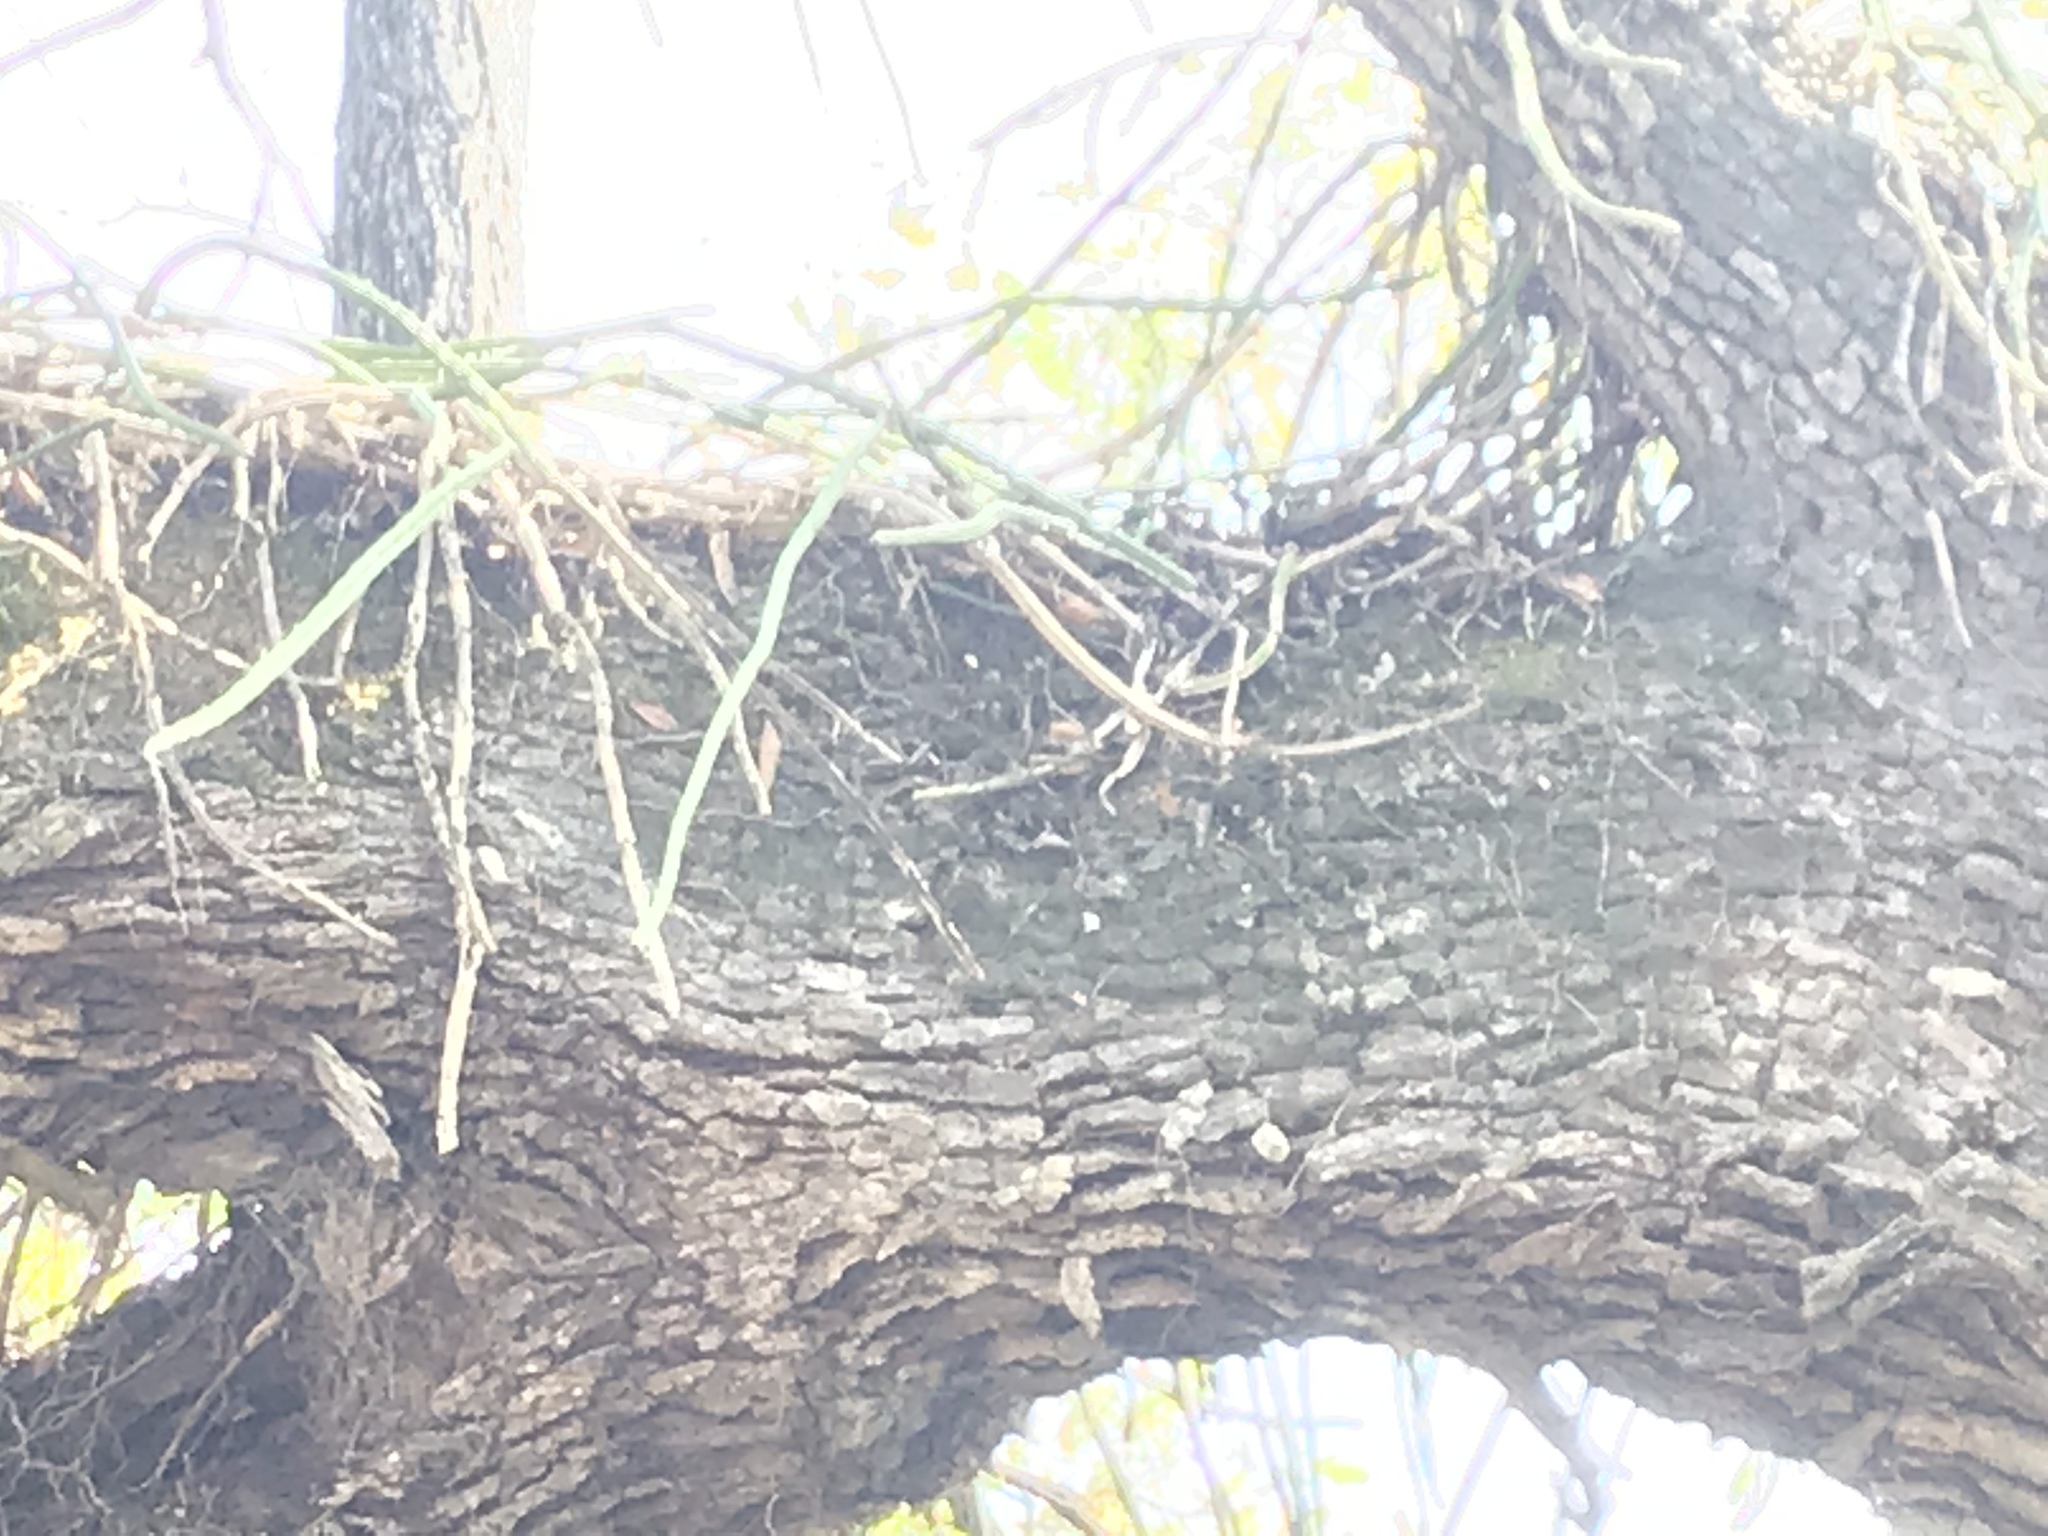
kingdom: Plantae
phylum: Tracheophyta
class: Magnoliopsida
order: Caryophyllales
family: Cactaceae
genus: Selenicereus
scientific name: Selenicereus spinulosus
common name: Nightblooming cereus
